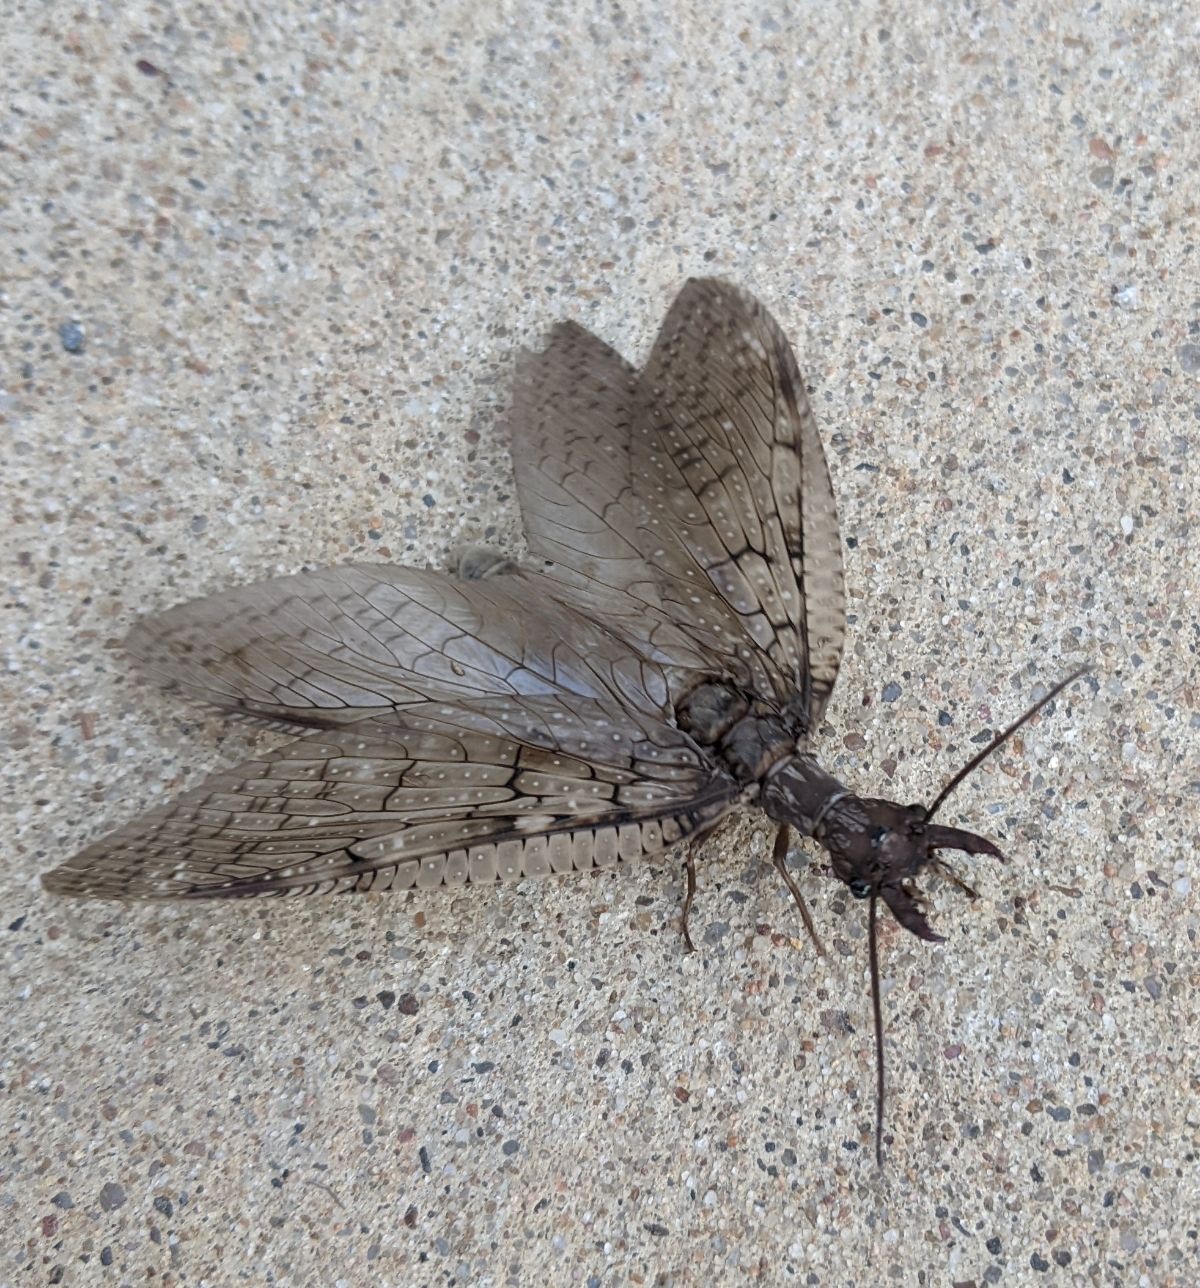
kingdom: Animalia
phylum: Arthropoda
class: Insecta
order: Megaloptera
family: Corydalidae
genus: Corydalus
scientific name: Corydalus cornutus
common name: Dobsonfly
